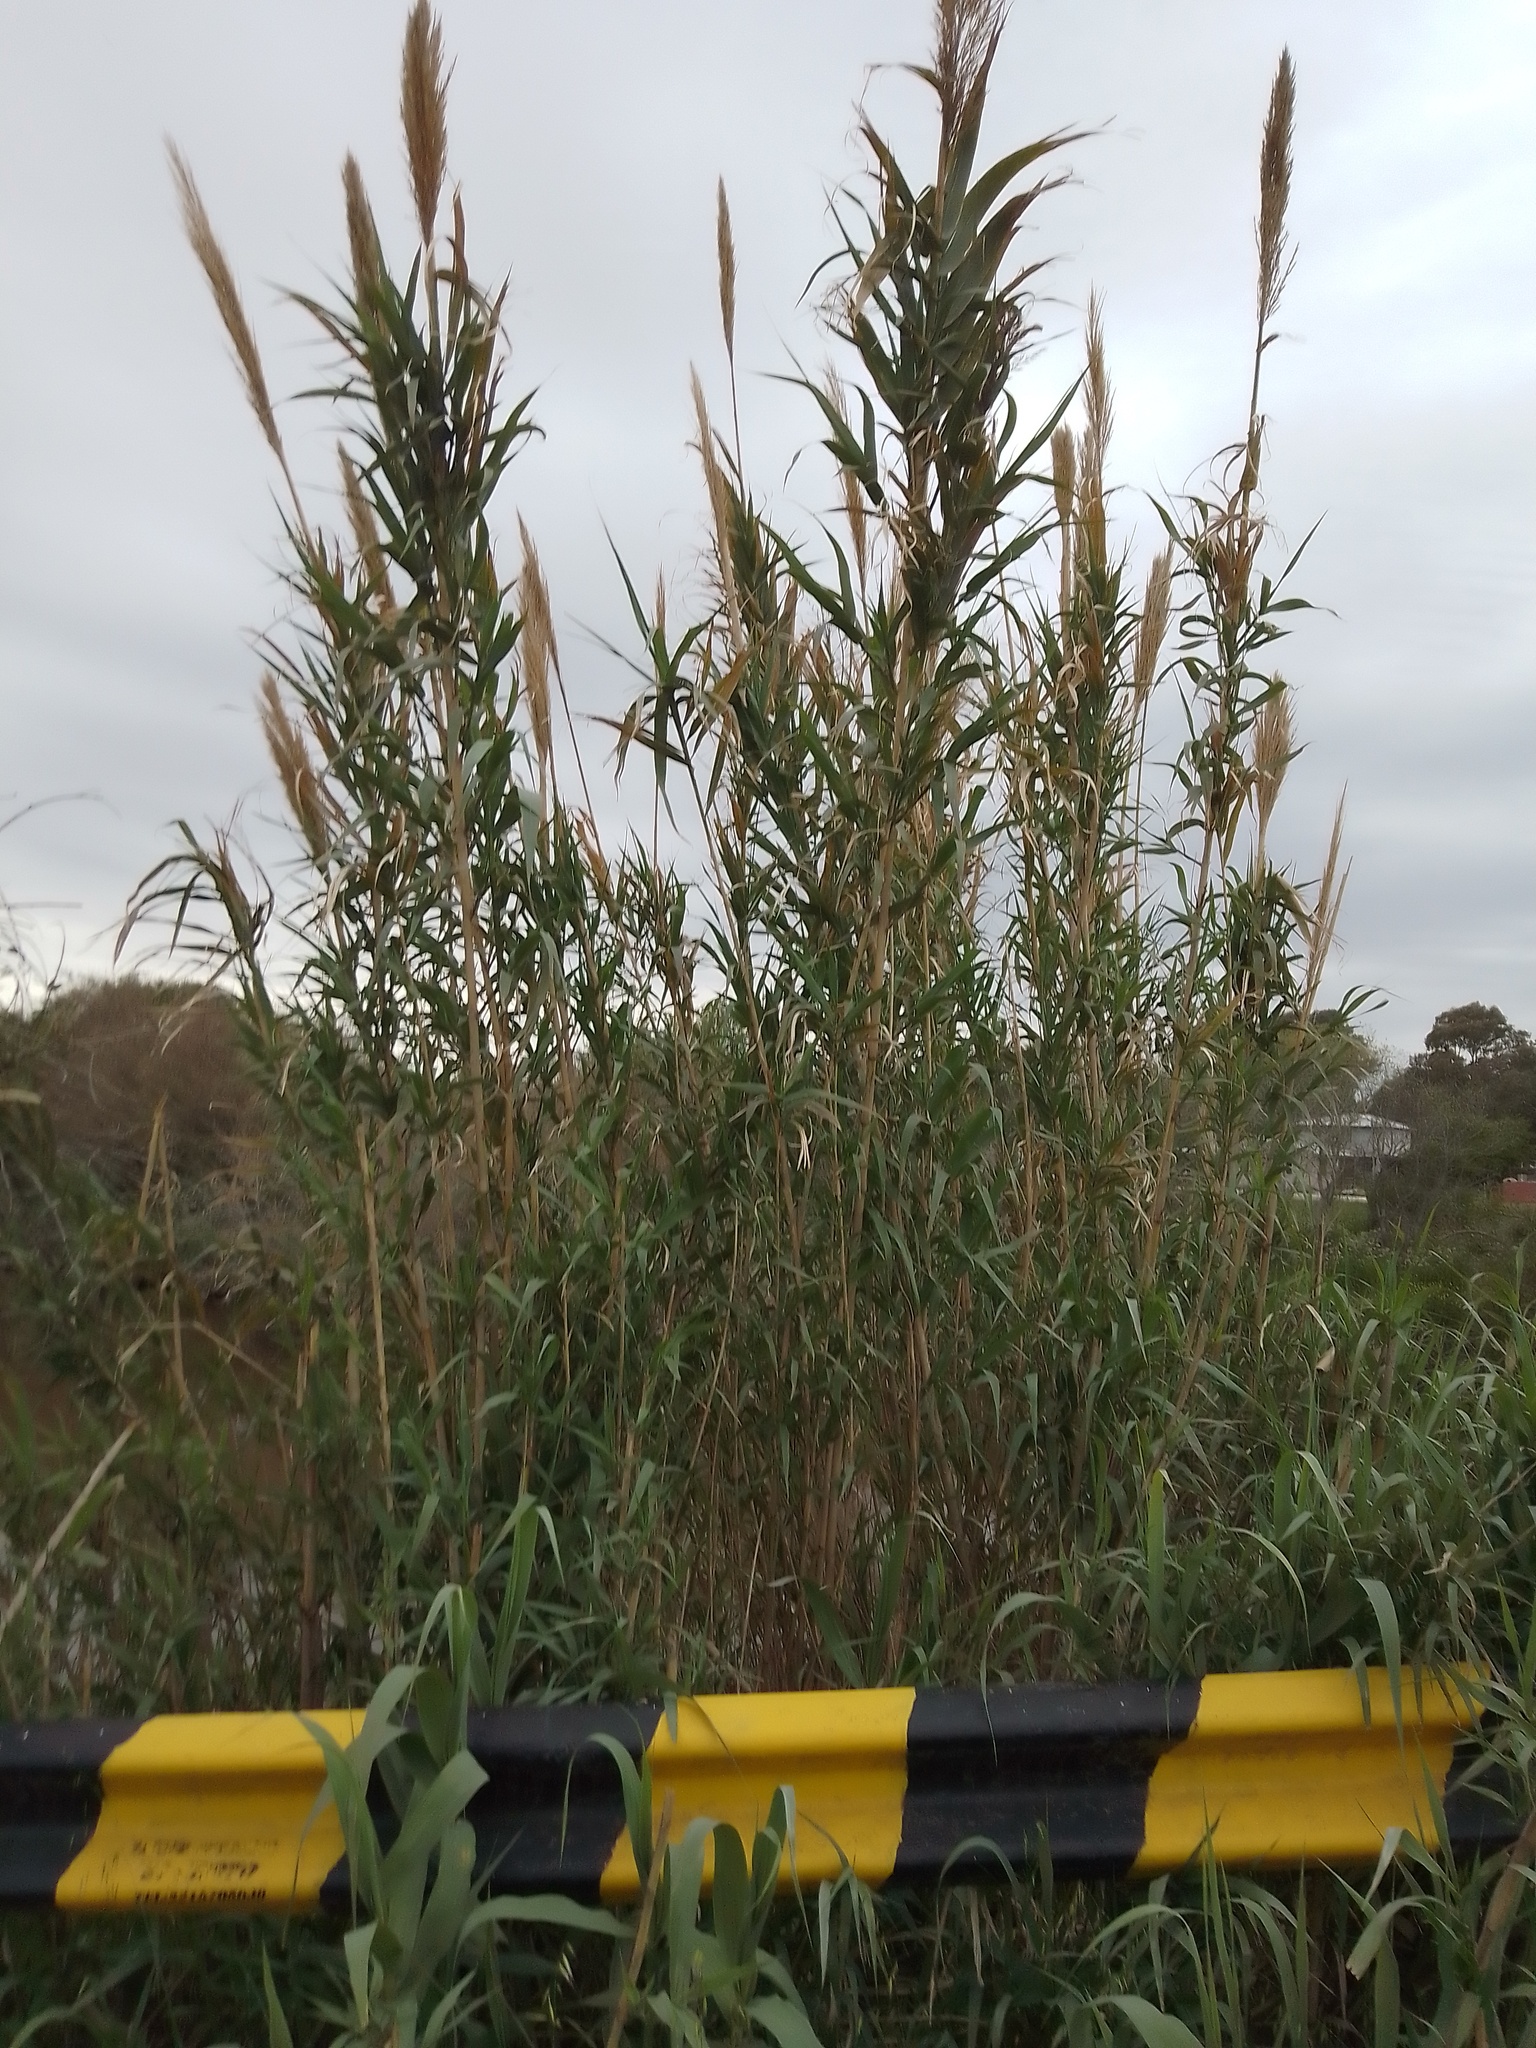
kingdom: Plantae
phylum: Tracheophyta
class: Liliopsida
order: Poales
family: Poaceae
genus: Arundo
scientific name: Arundo donax
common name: Giant reed
